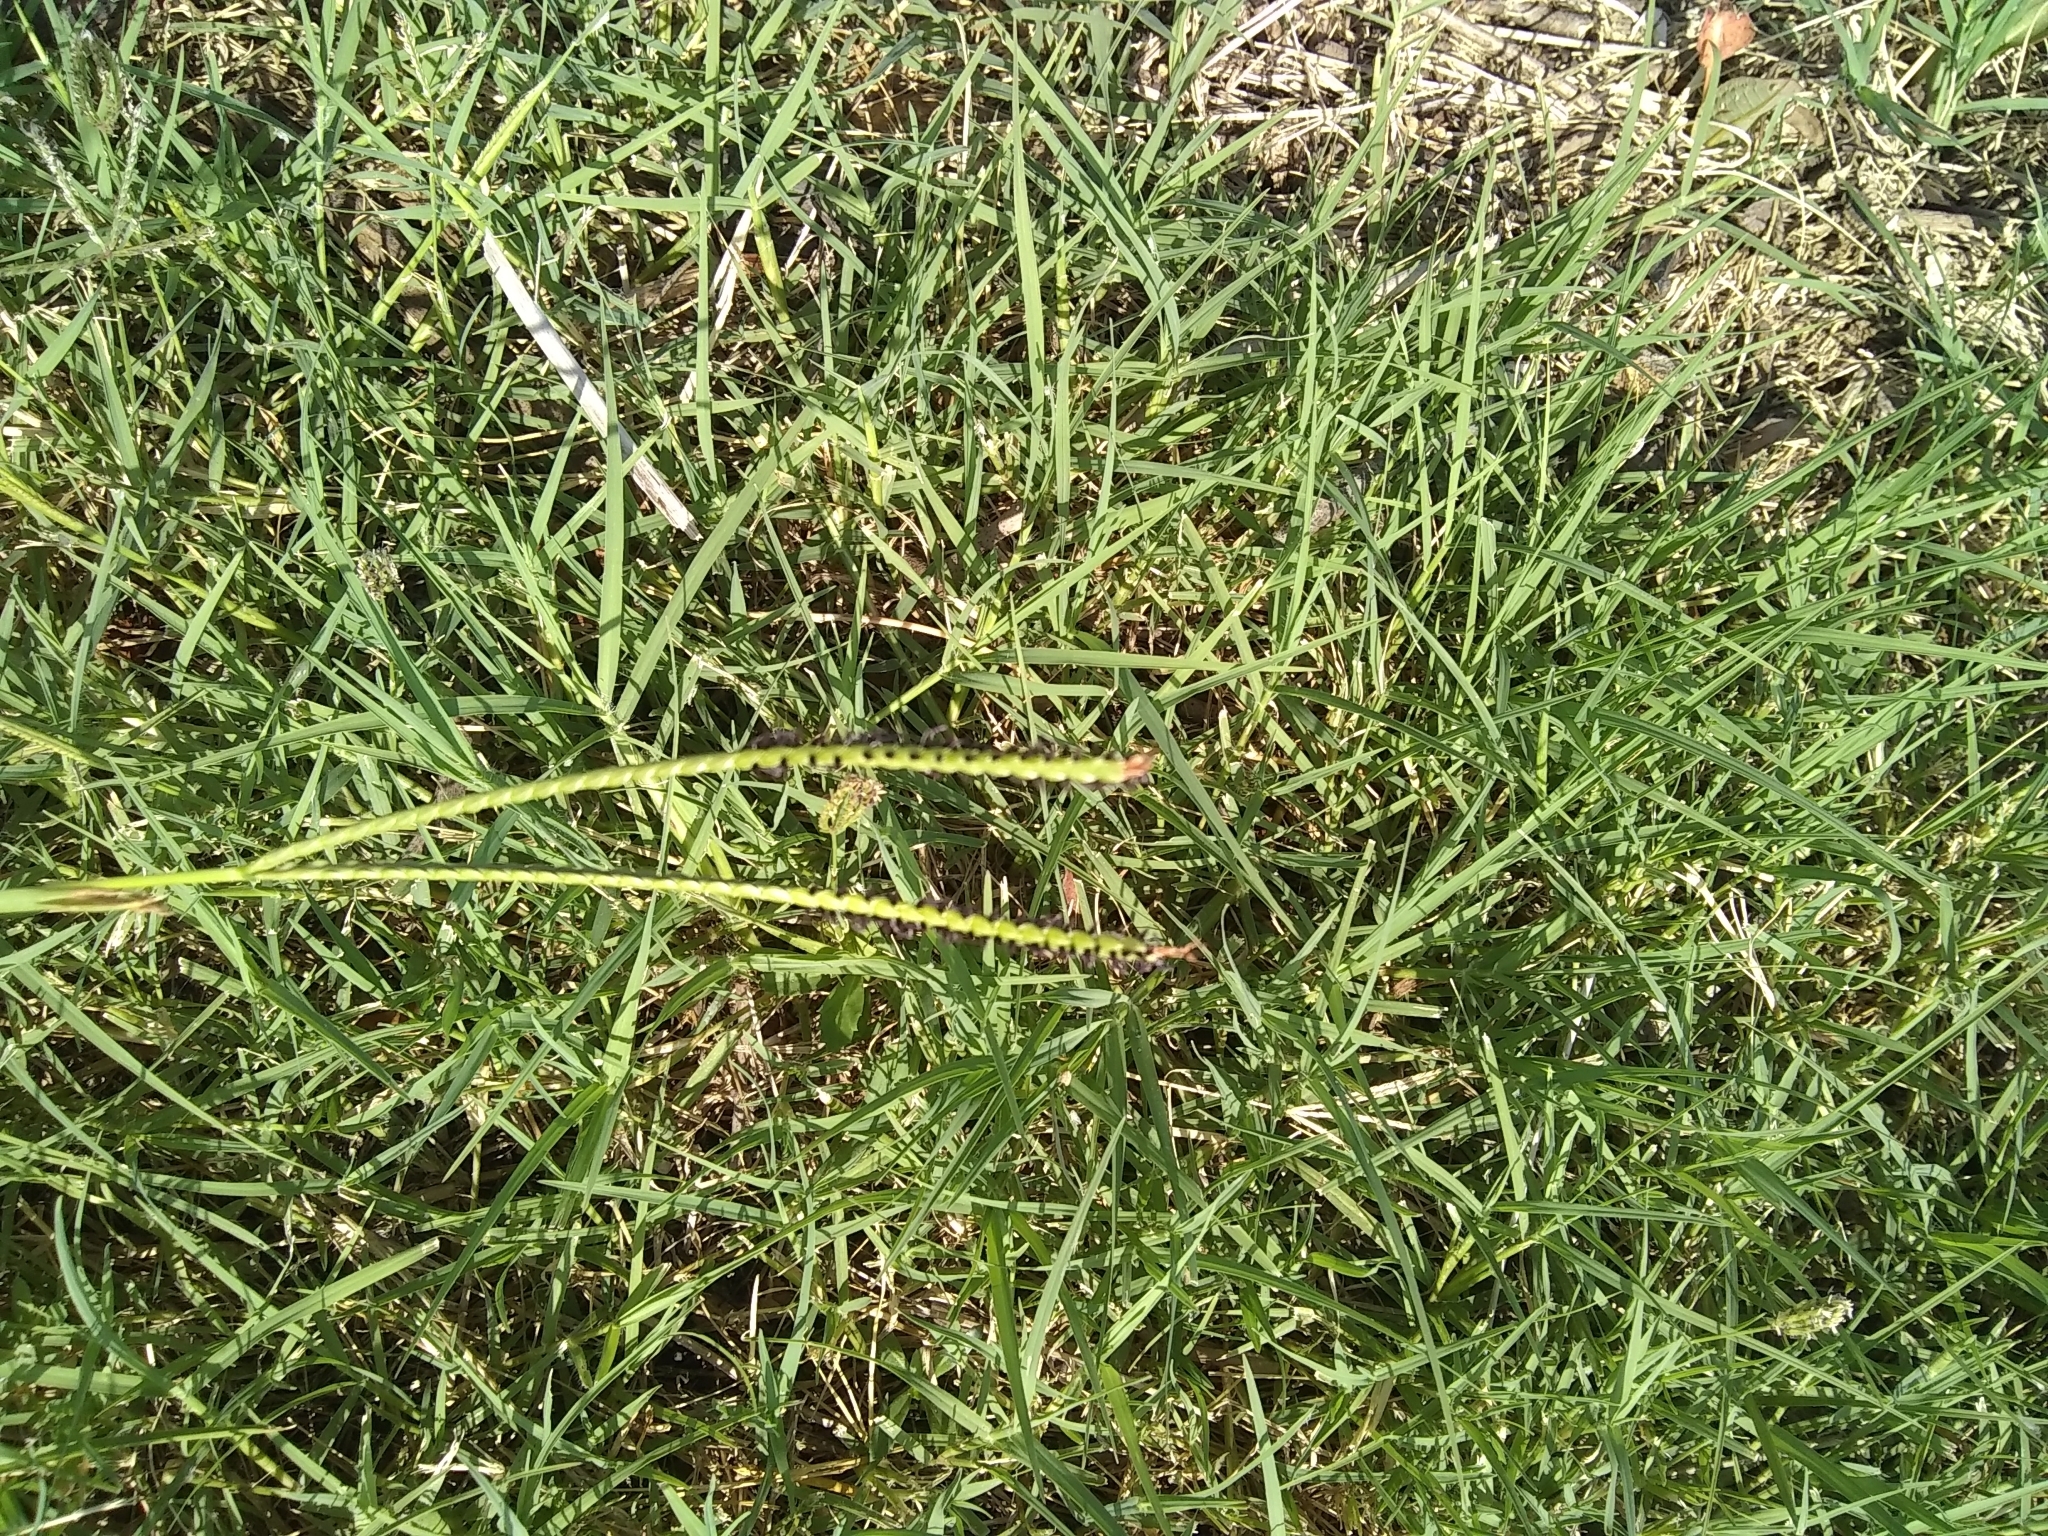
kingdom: Plantae
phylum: Tracheophyta
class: Liliopsida
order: Poales
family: Poaceae
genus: Paspalum
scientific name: Paspalum notatum
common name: Bahiagrass
